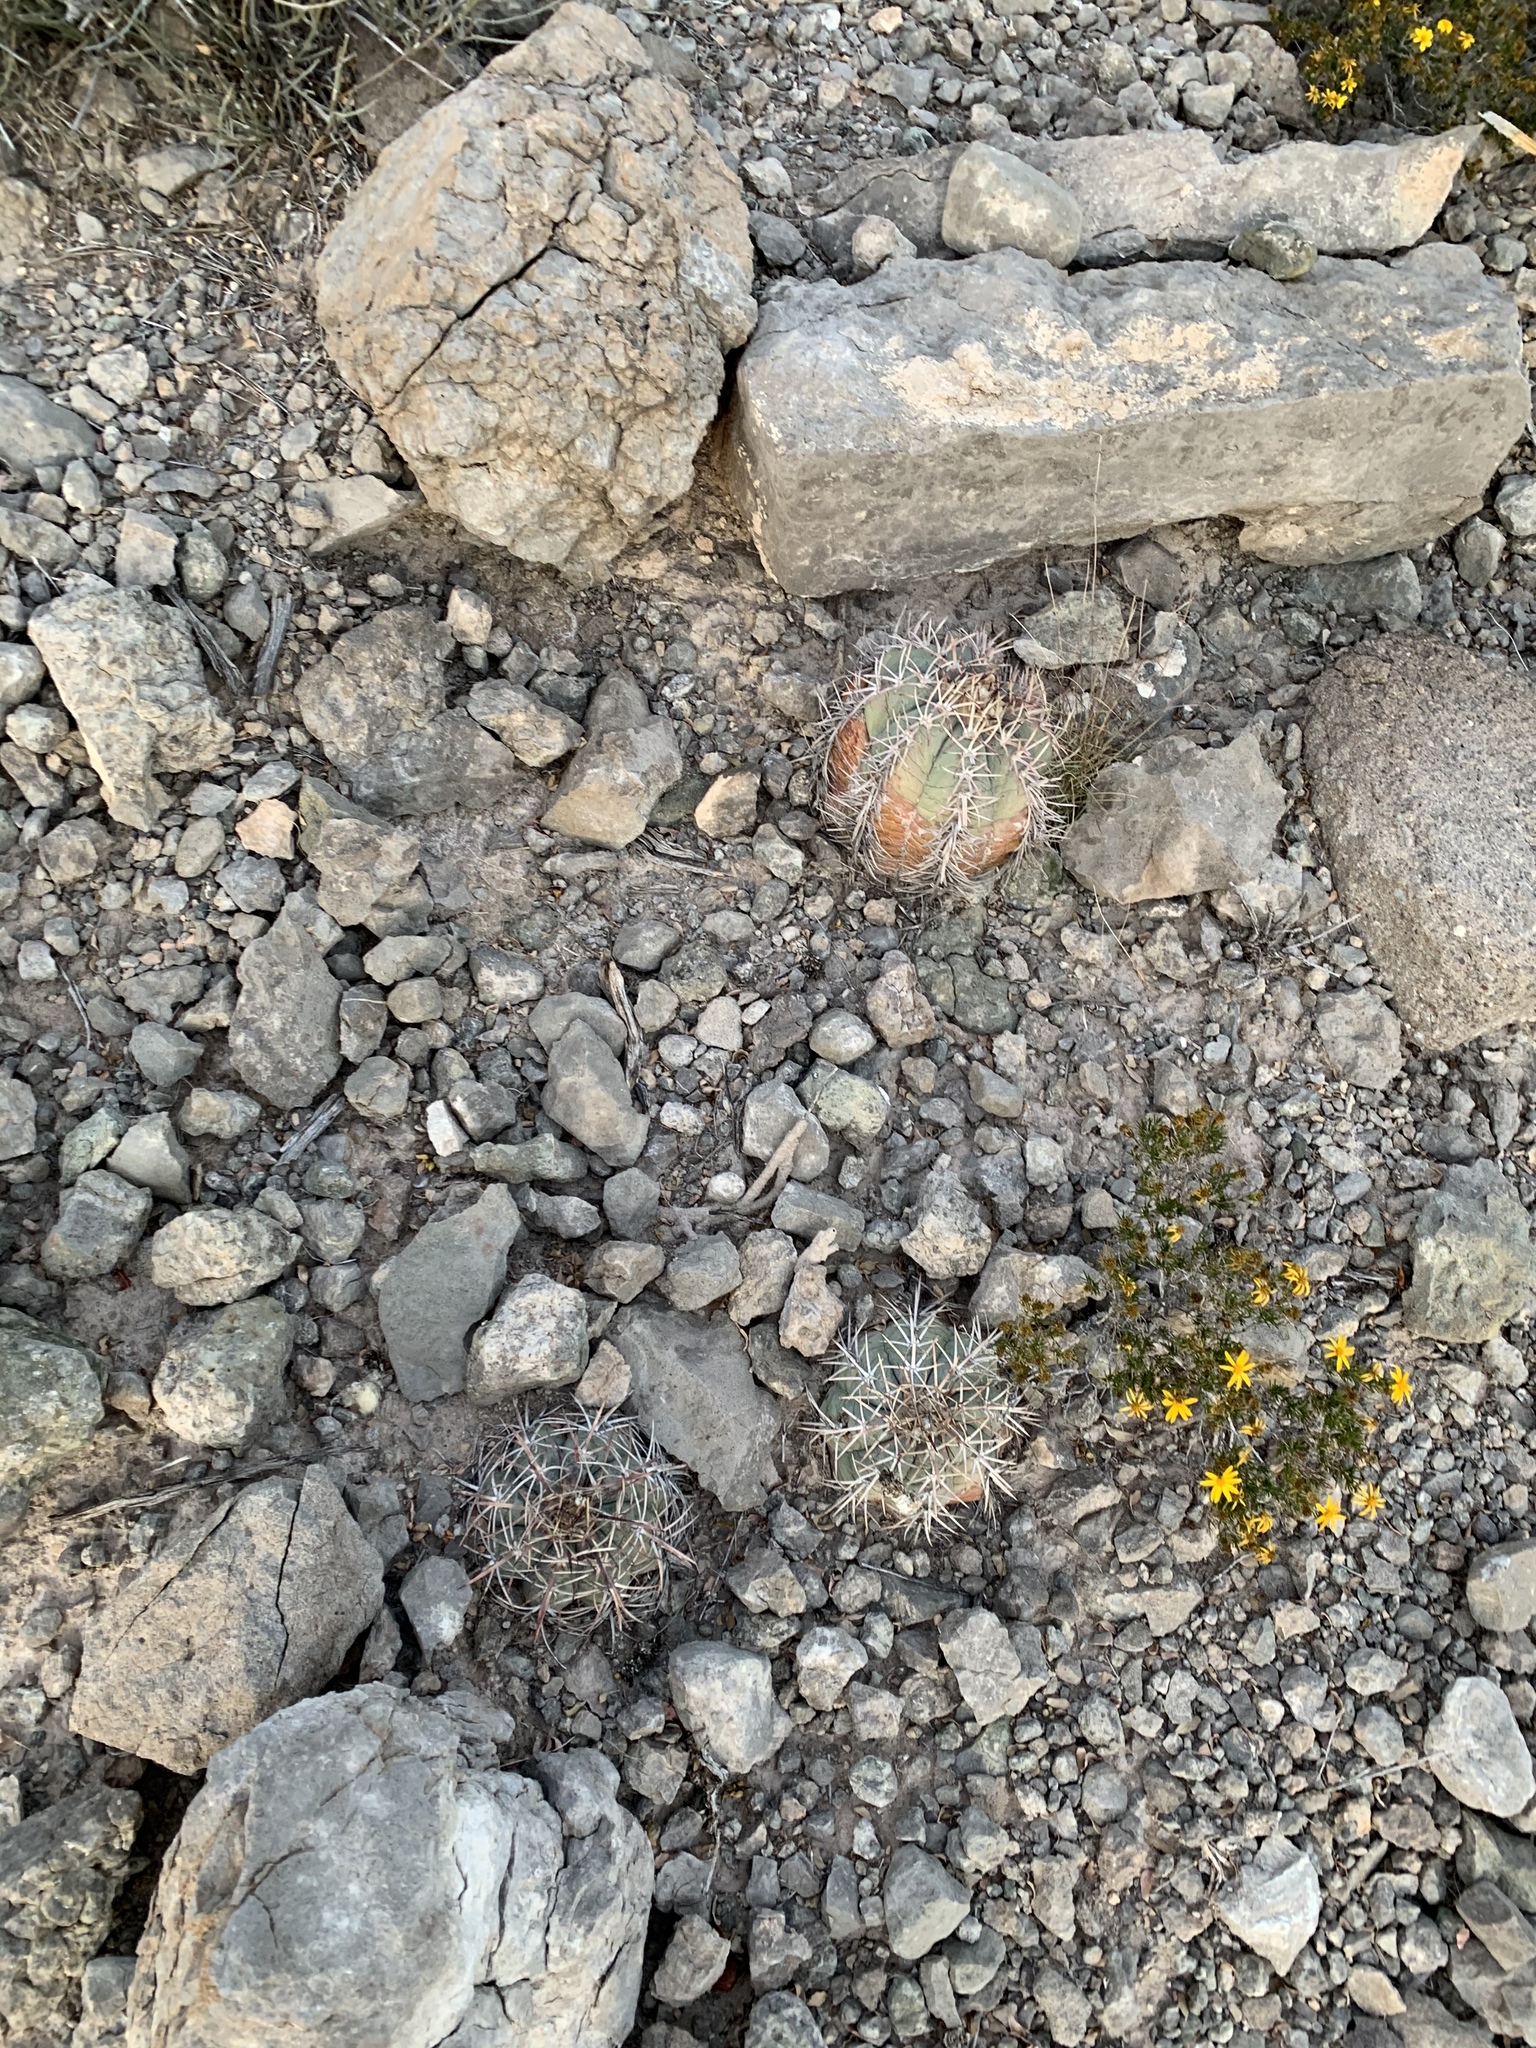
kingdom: Plantae
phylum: Tracheophyta
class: Magnoliopsida
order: Caryophyllales
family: Cactaceae
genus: Echinocactus
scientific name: Echinocactus horizonthalonius
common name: Devilshead
